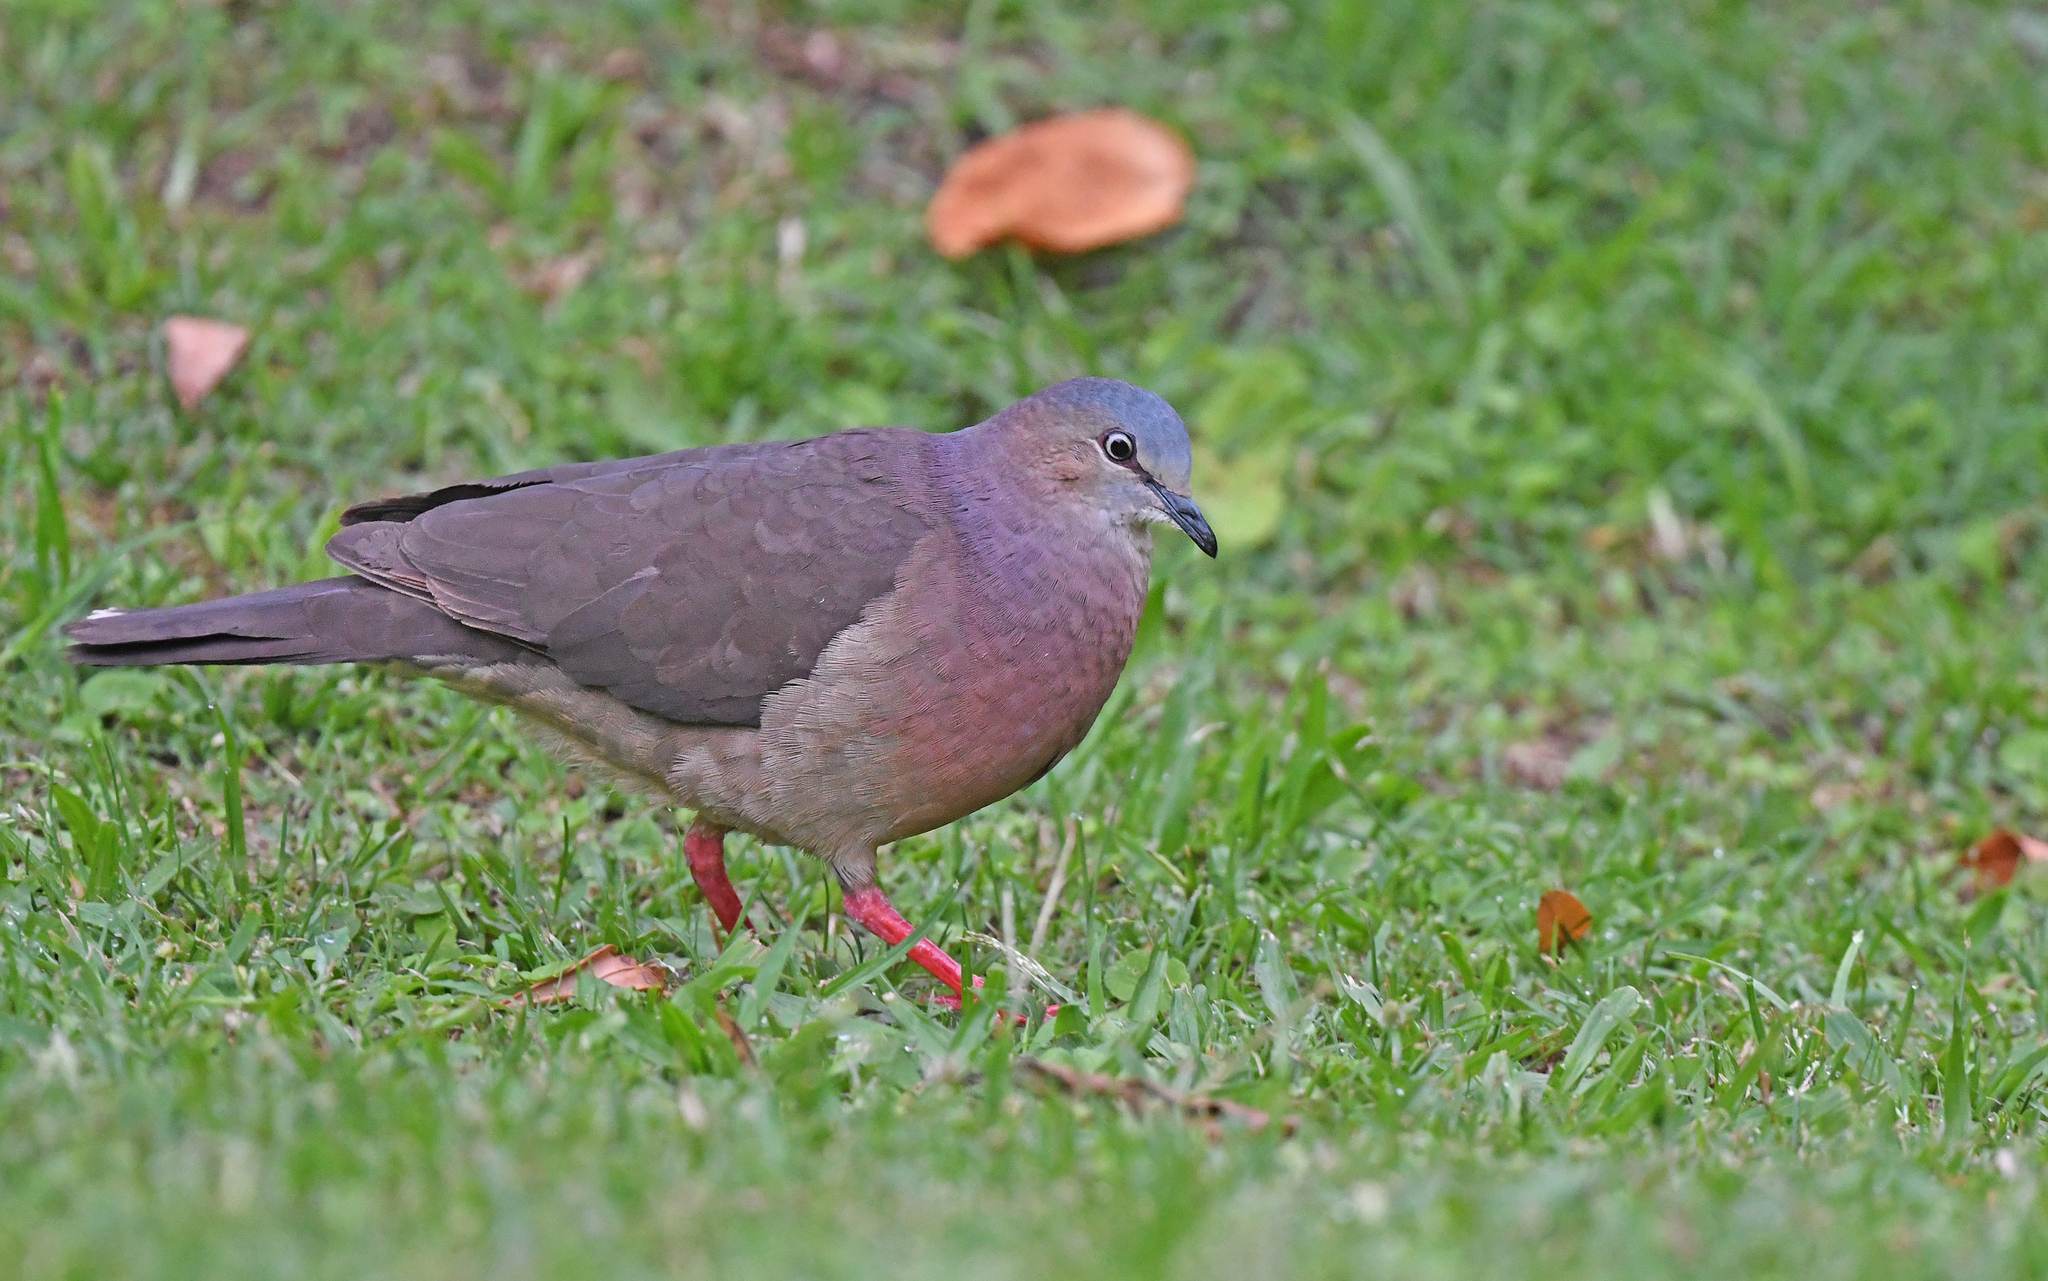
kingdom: Animalia
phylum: Chordata
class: Aves
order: Columbiformes
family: Columbidae
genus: Leptotila
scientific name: Leptotila conoveri
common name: Tolima dove
